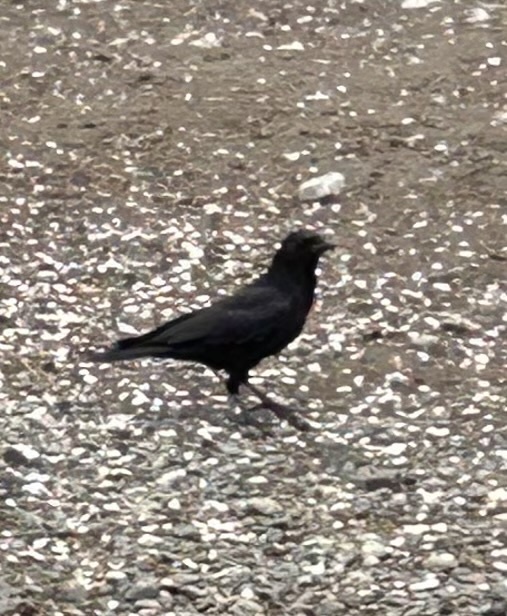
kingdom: Animalia
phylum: Chordata
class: Aves
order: Passeriformes
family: Corvidae
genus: Corvus
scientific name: Corvus brachyrhynchos
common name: American crow
